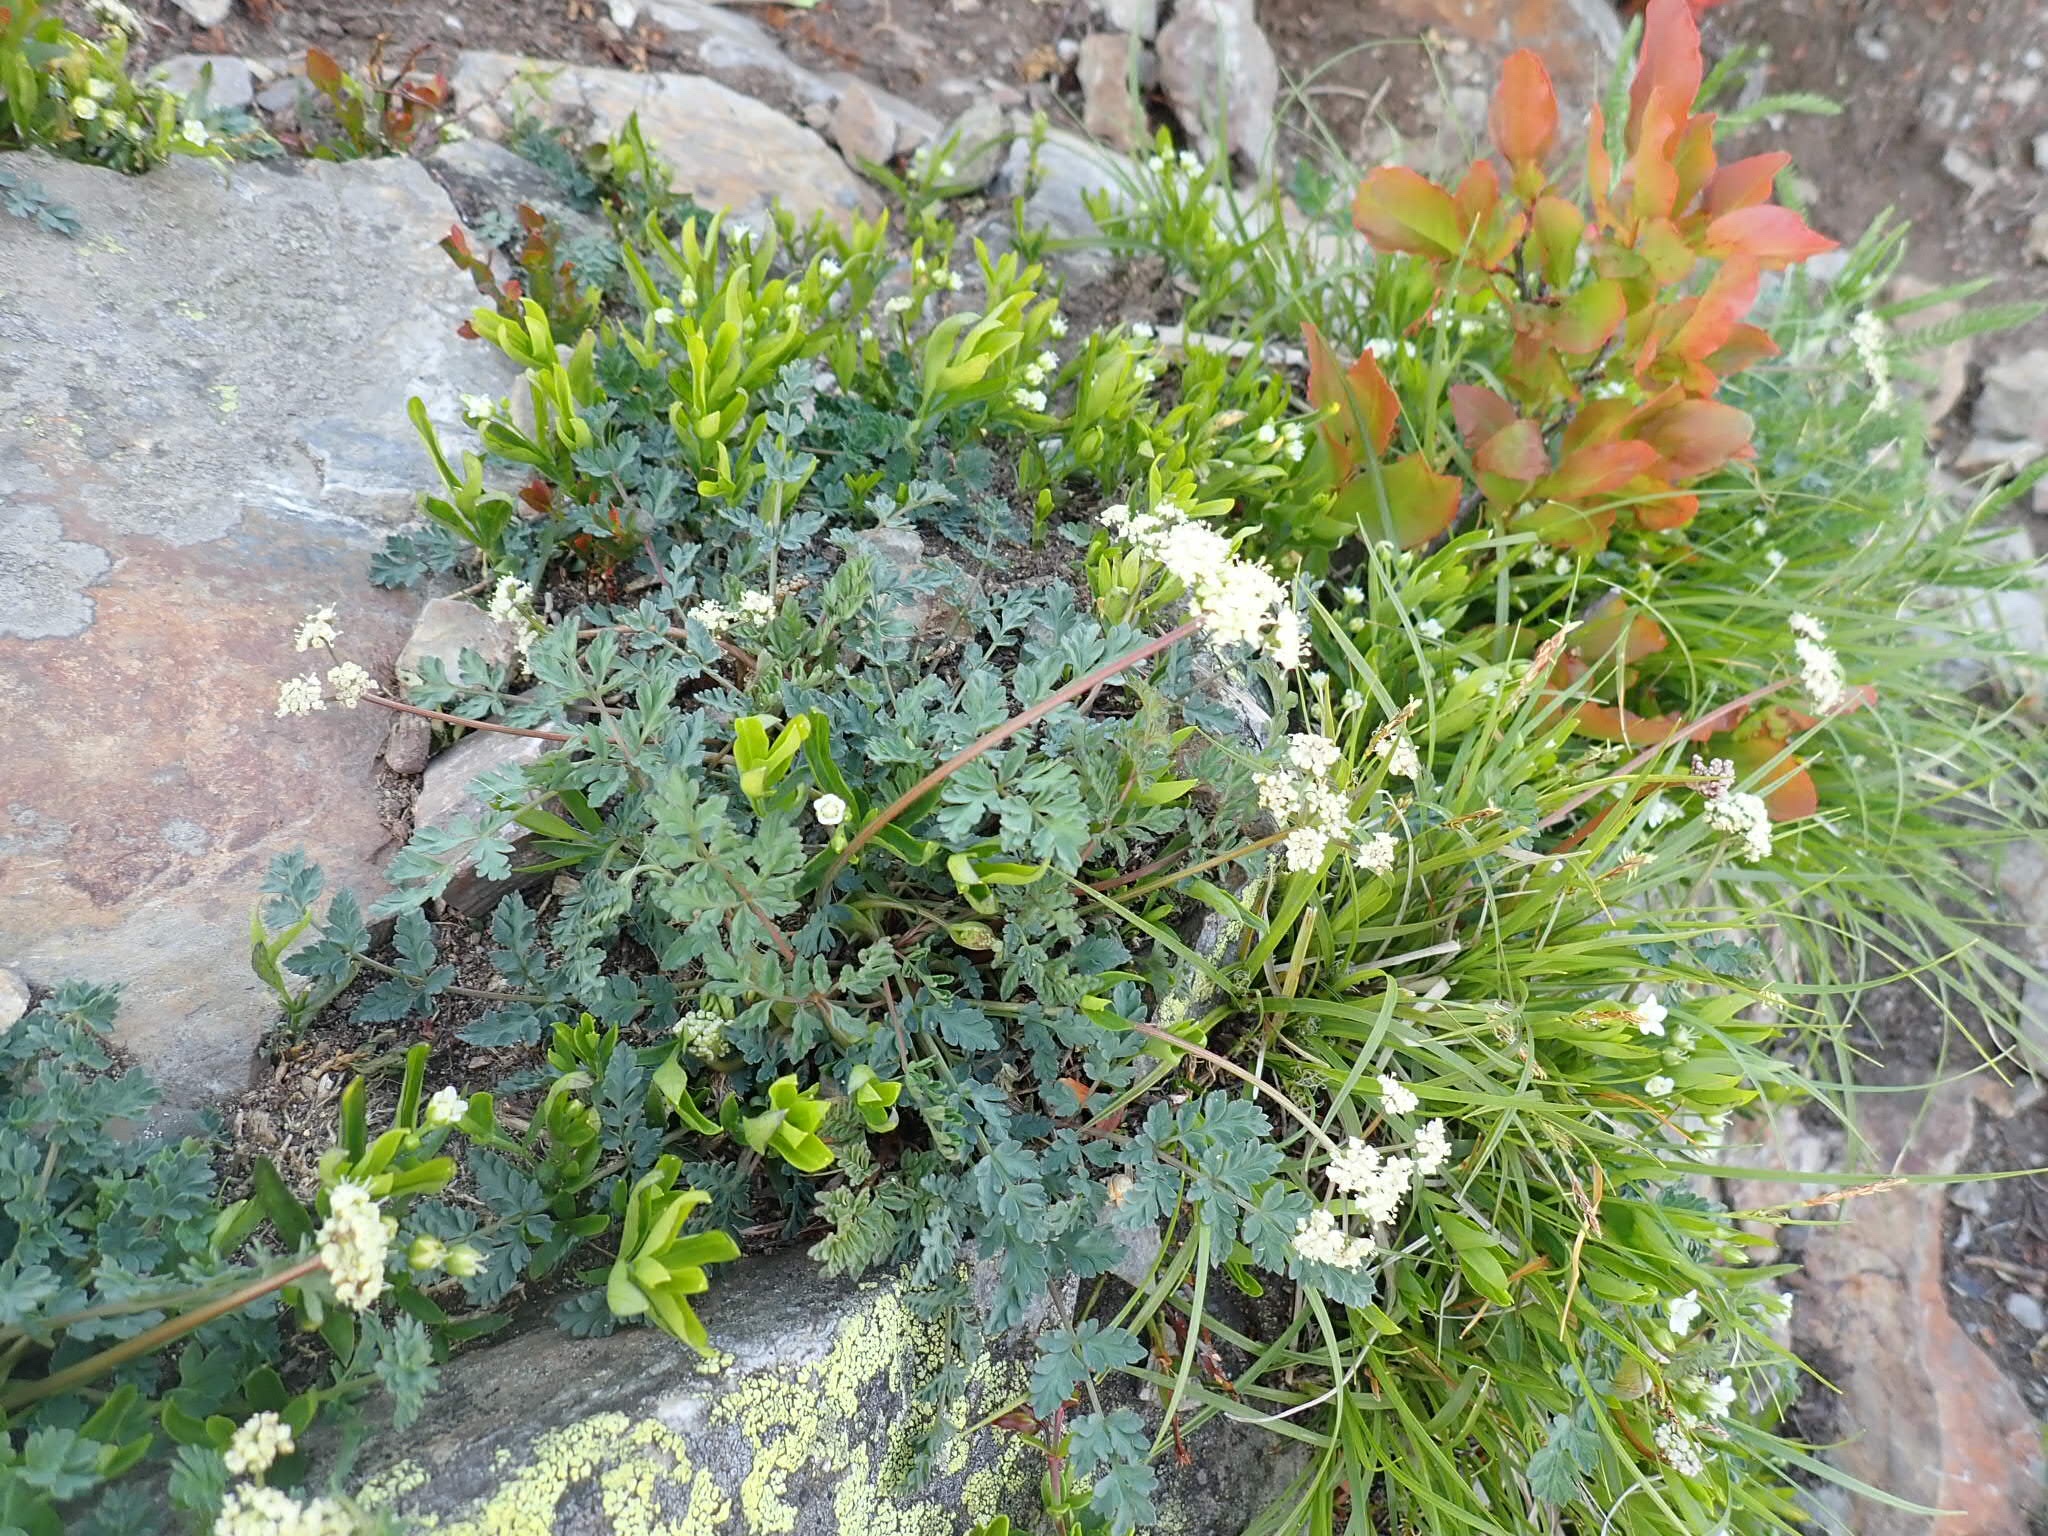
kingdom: Plantae
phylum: Tracheophyta
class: Magnoliopsida
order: Apiales
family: Apiaceae
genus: Lomatium
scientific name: Lomatium martindalei
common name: Cascade desert-parsley
